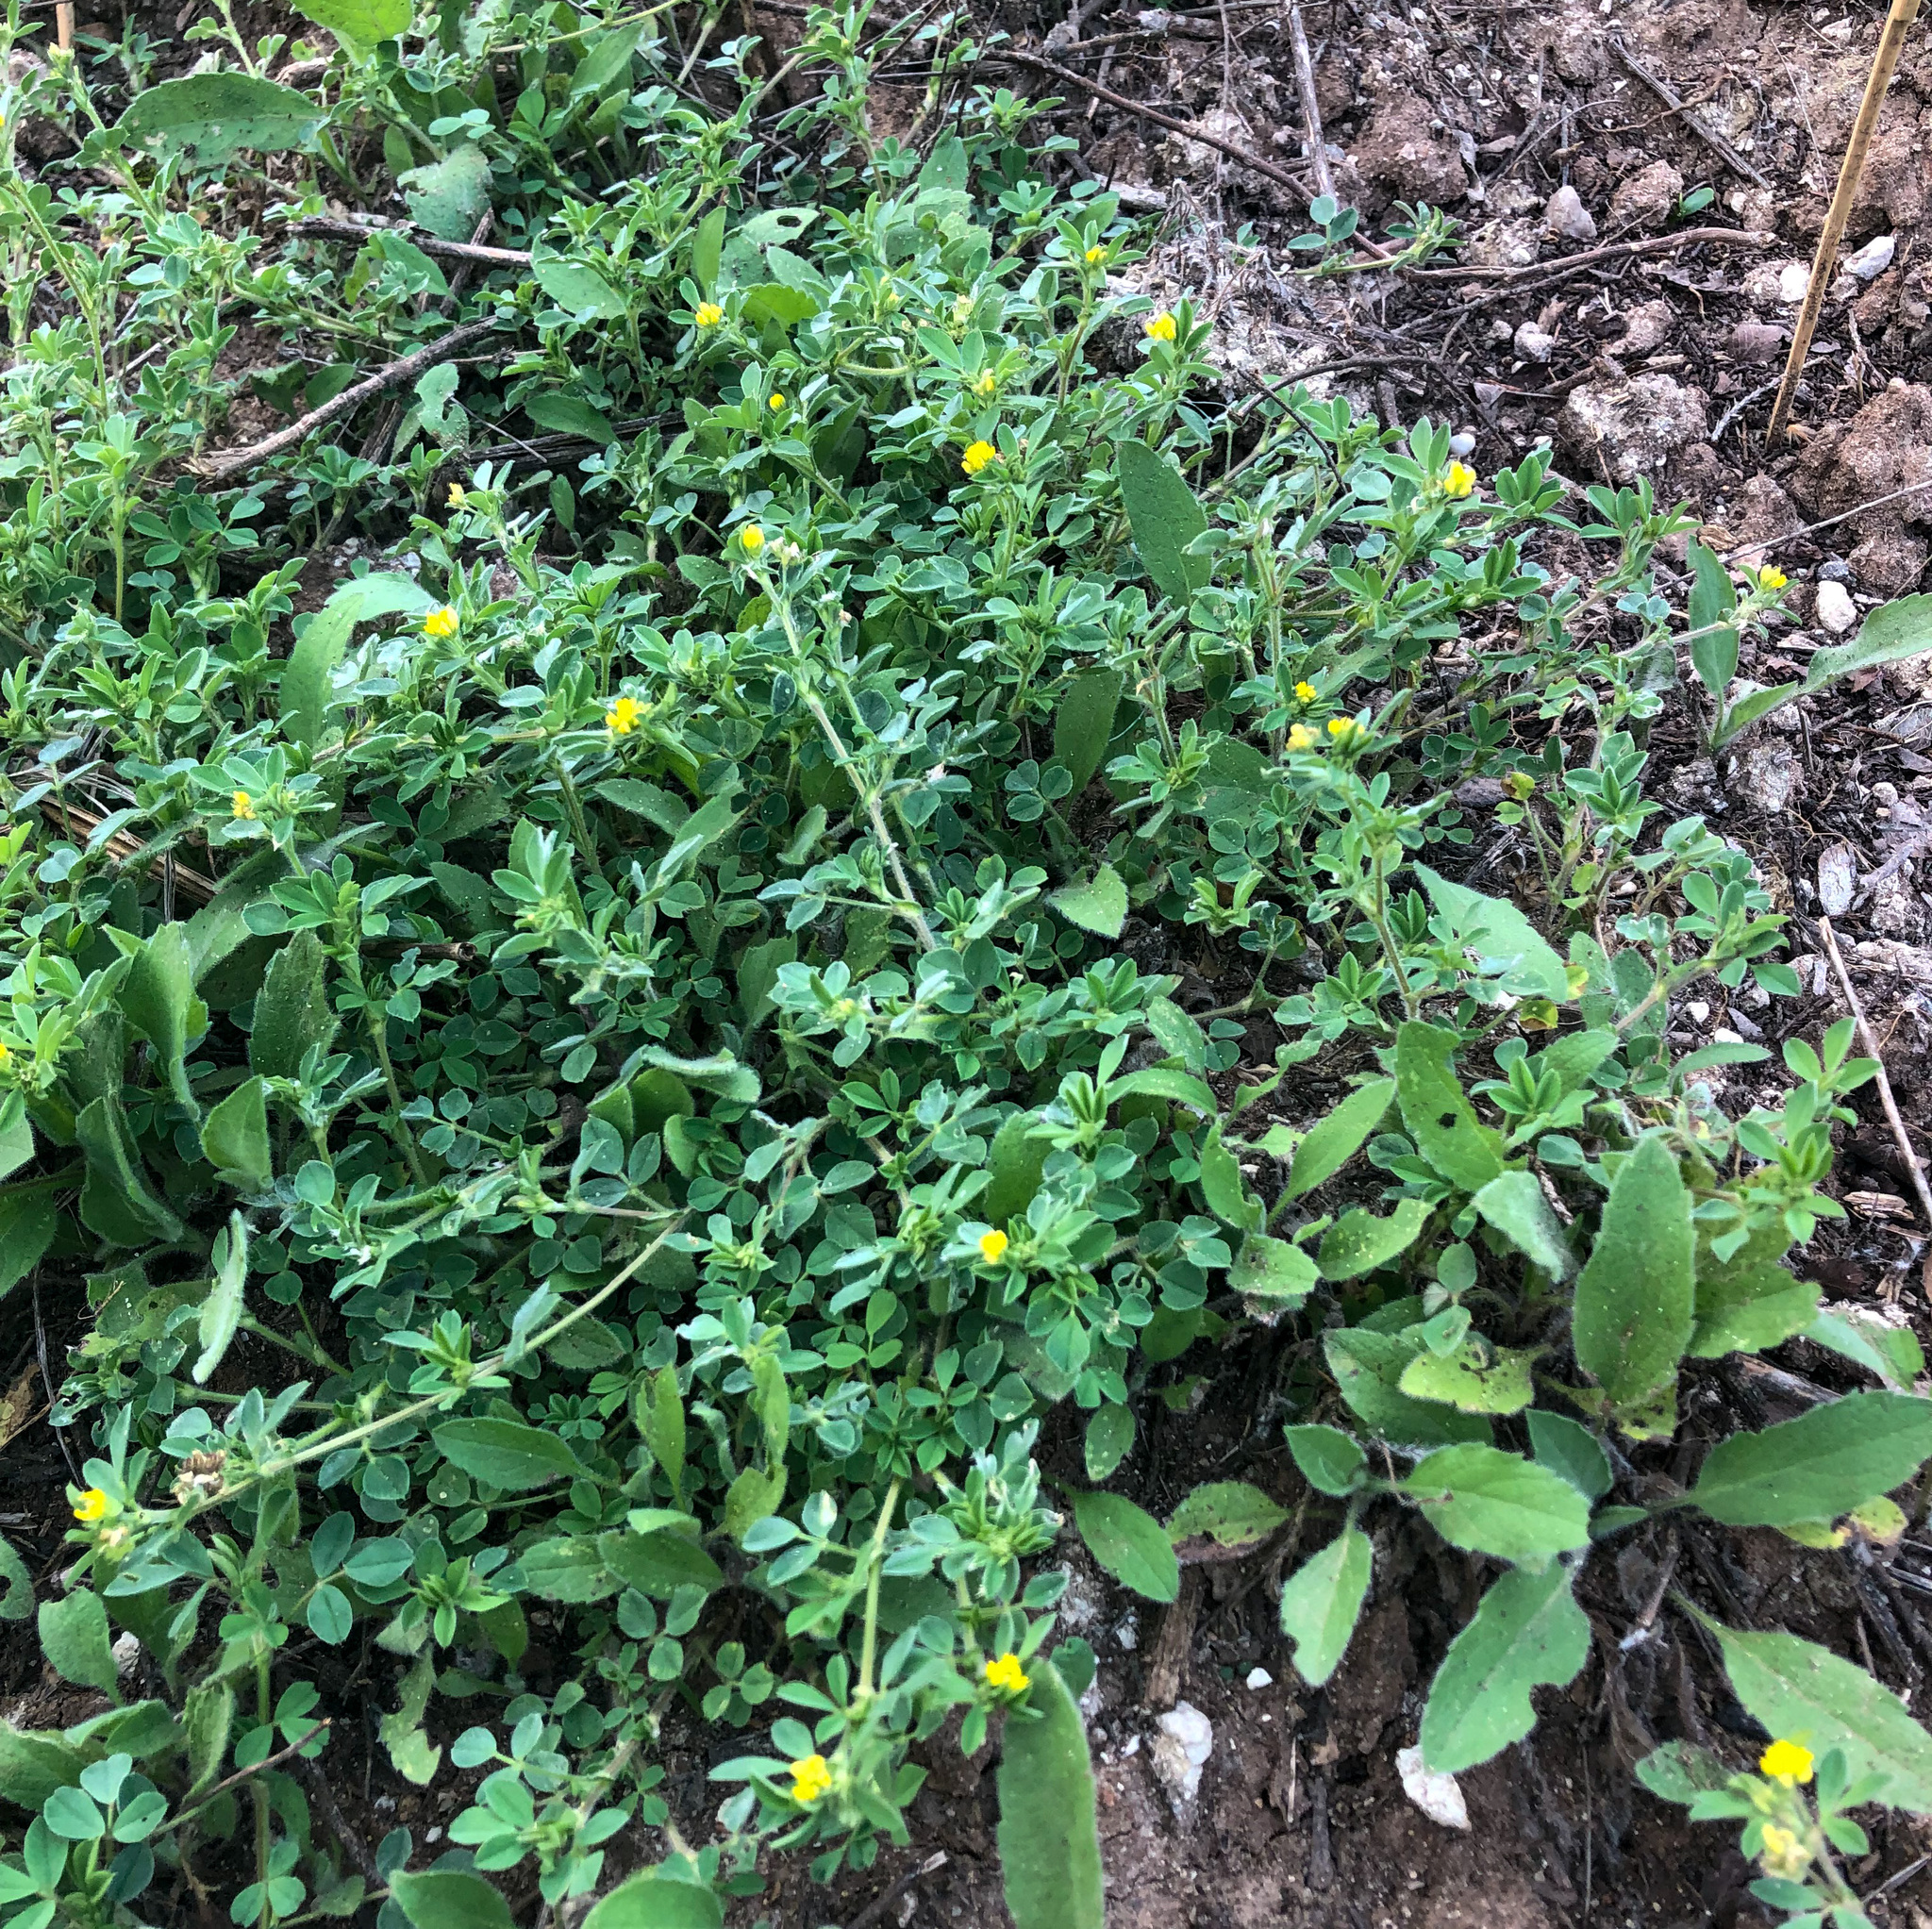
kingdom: Plantae
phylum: Tracheophyta
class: Magnoliopsida
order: Fabales
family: Fabaceae
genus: Medicago
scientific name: Medicago minima
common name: Little bur-clover
